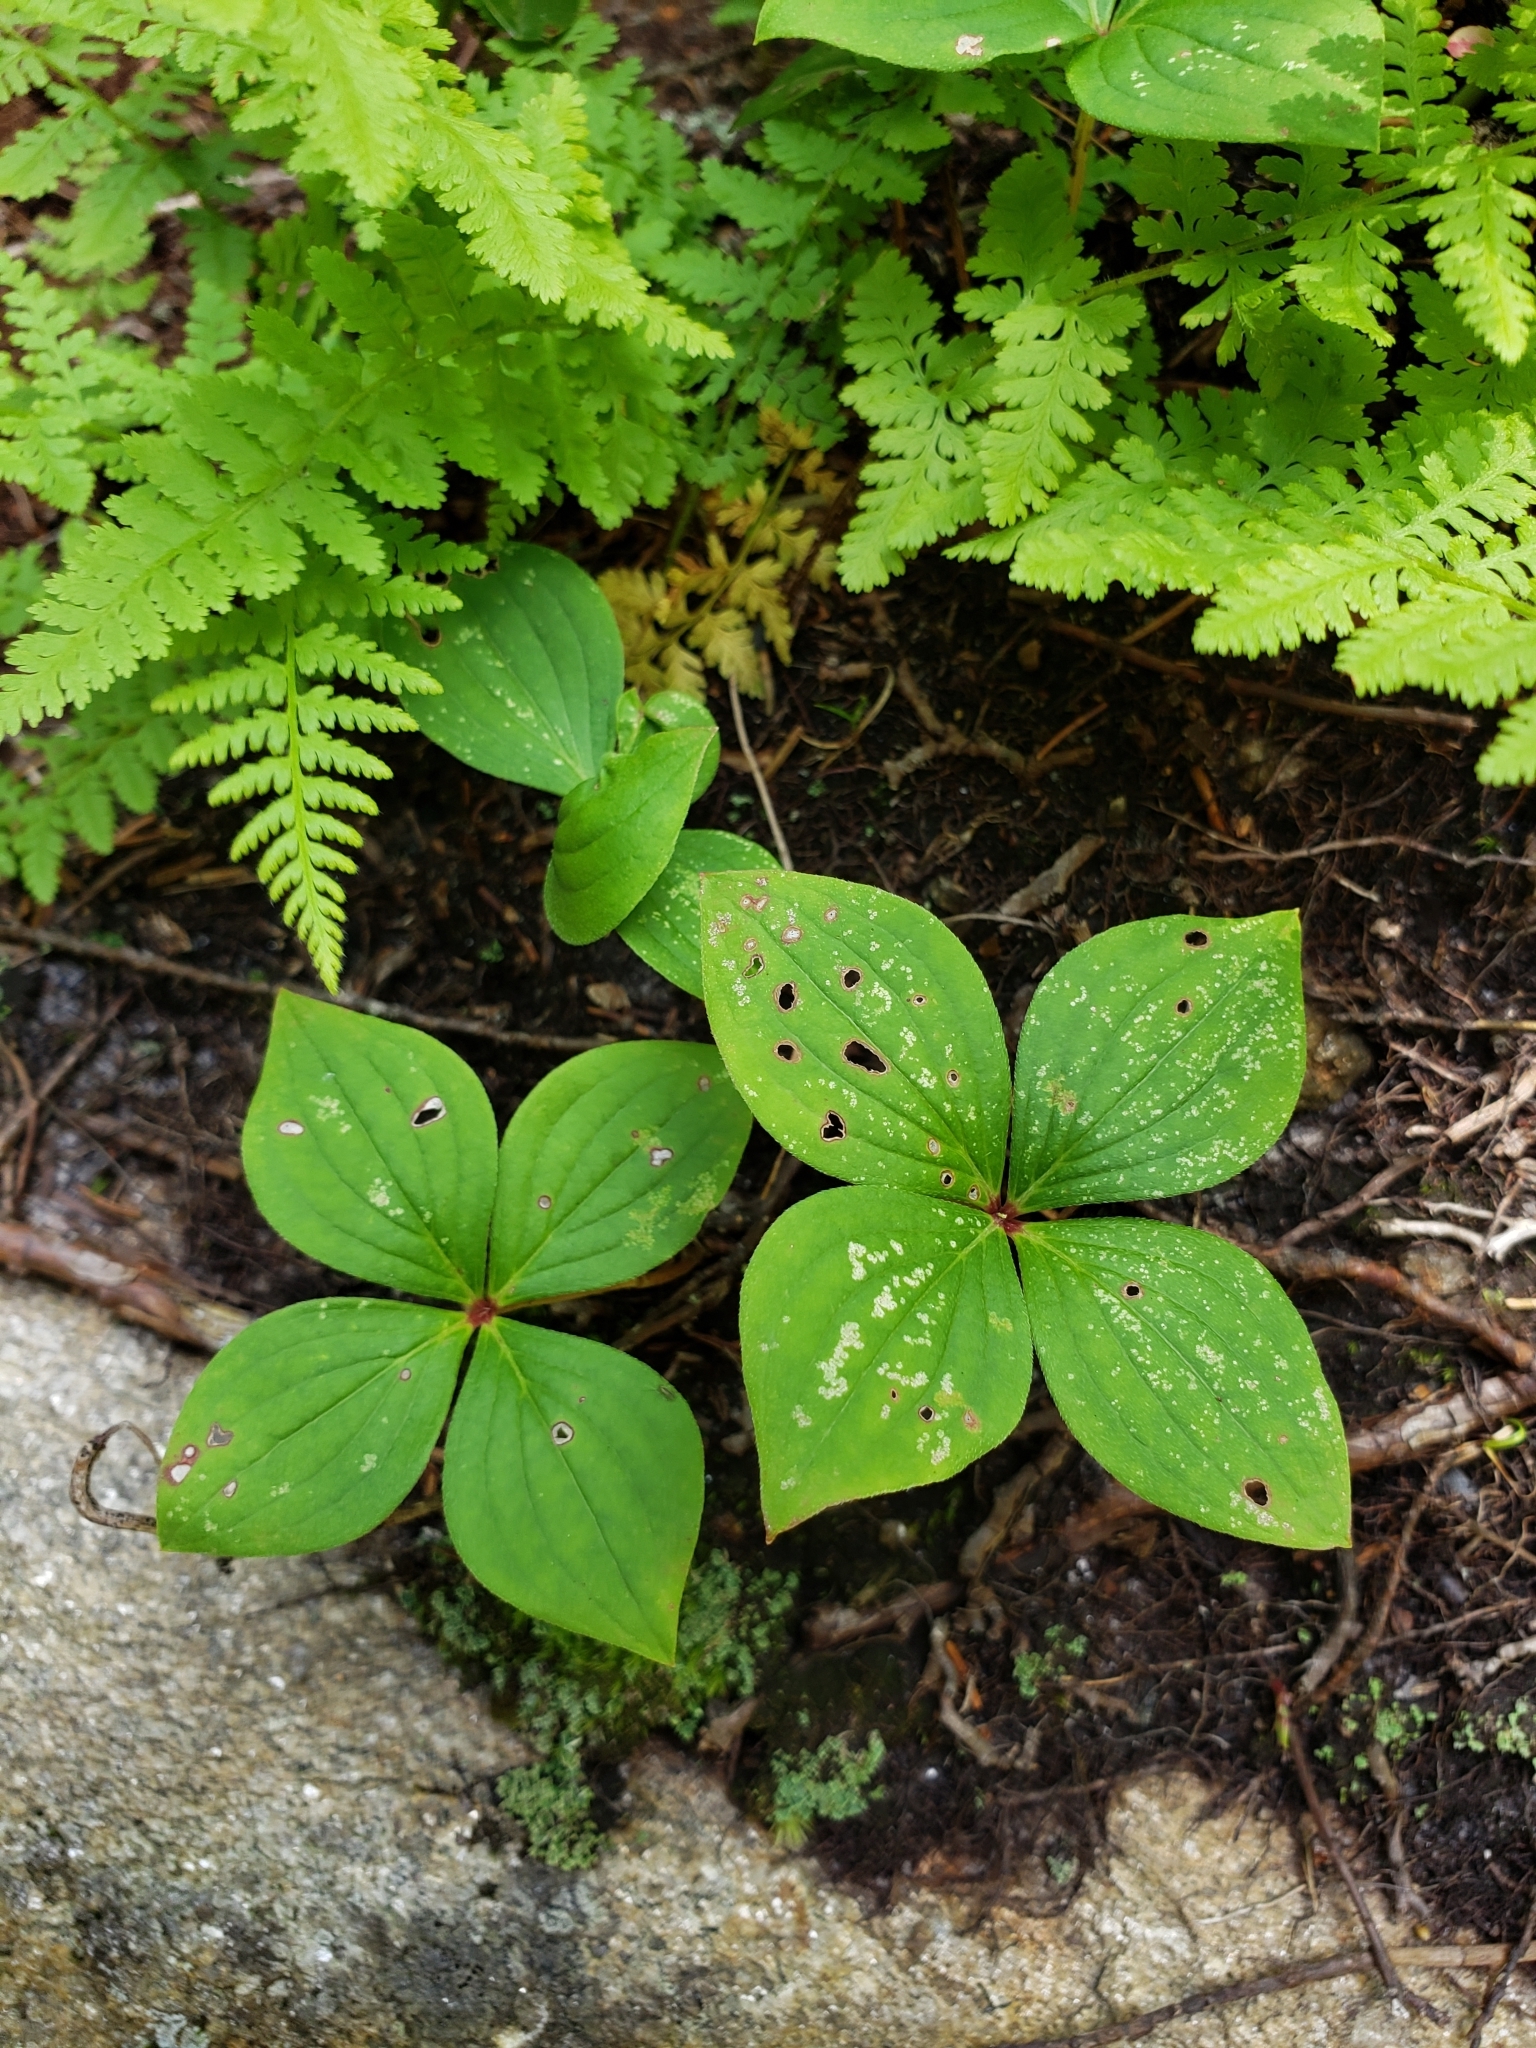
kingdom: Plantae
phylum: Tracheophyta
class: Magnoliopsida
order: Cornales
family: Cornaceae
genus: Cornus
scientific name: Cornus canadensis
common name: Creeping dogwood
